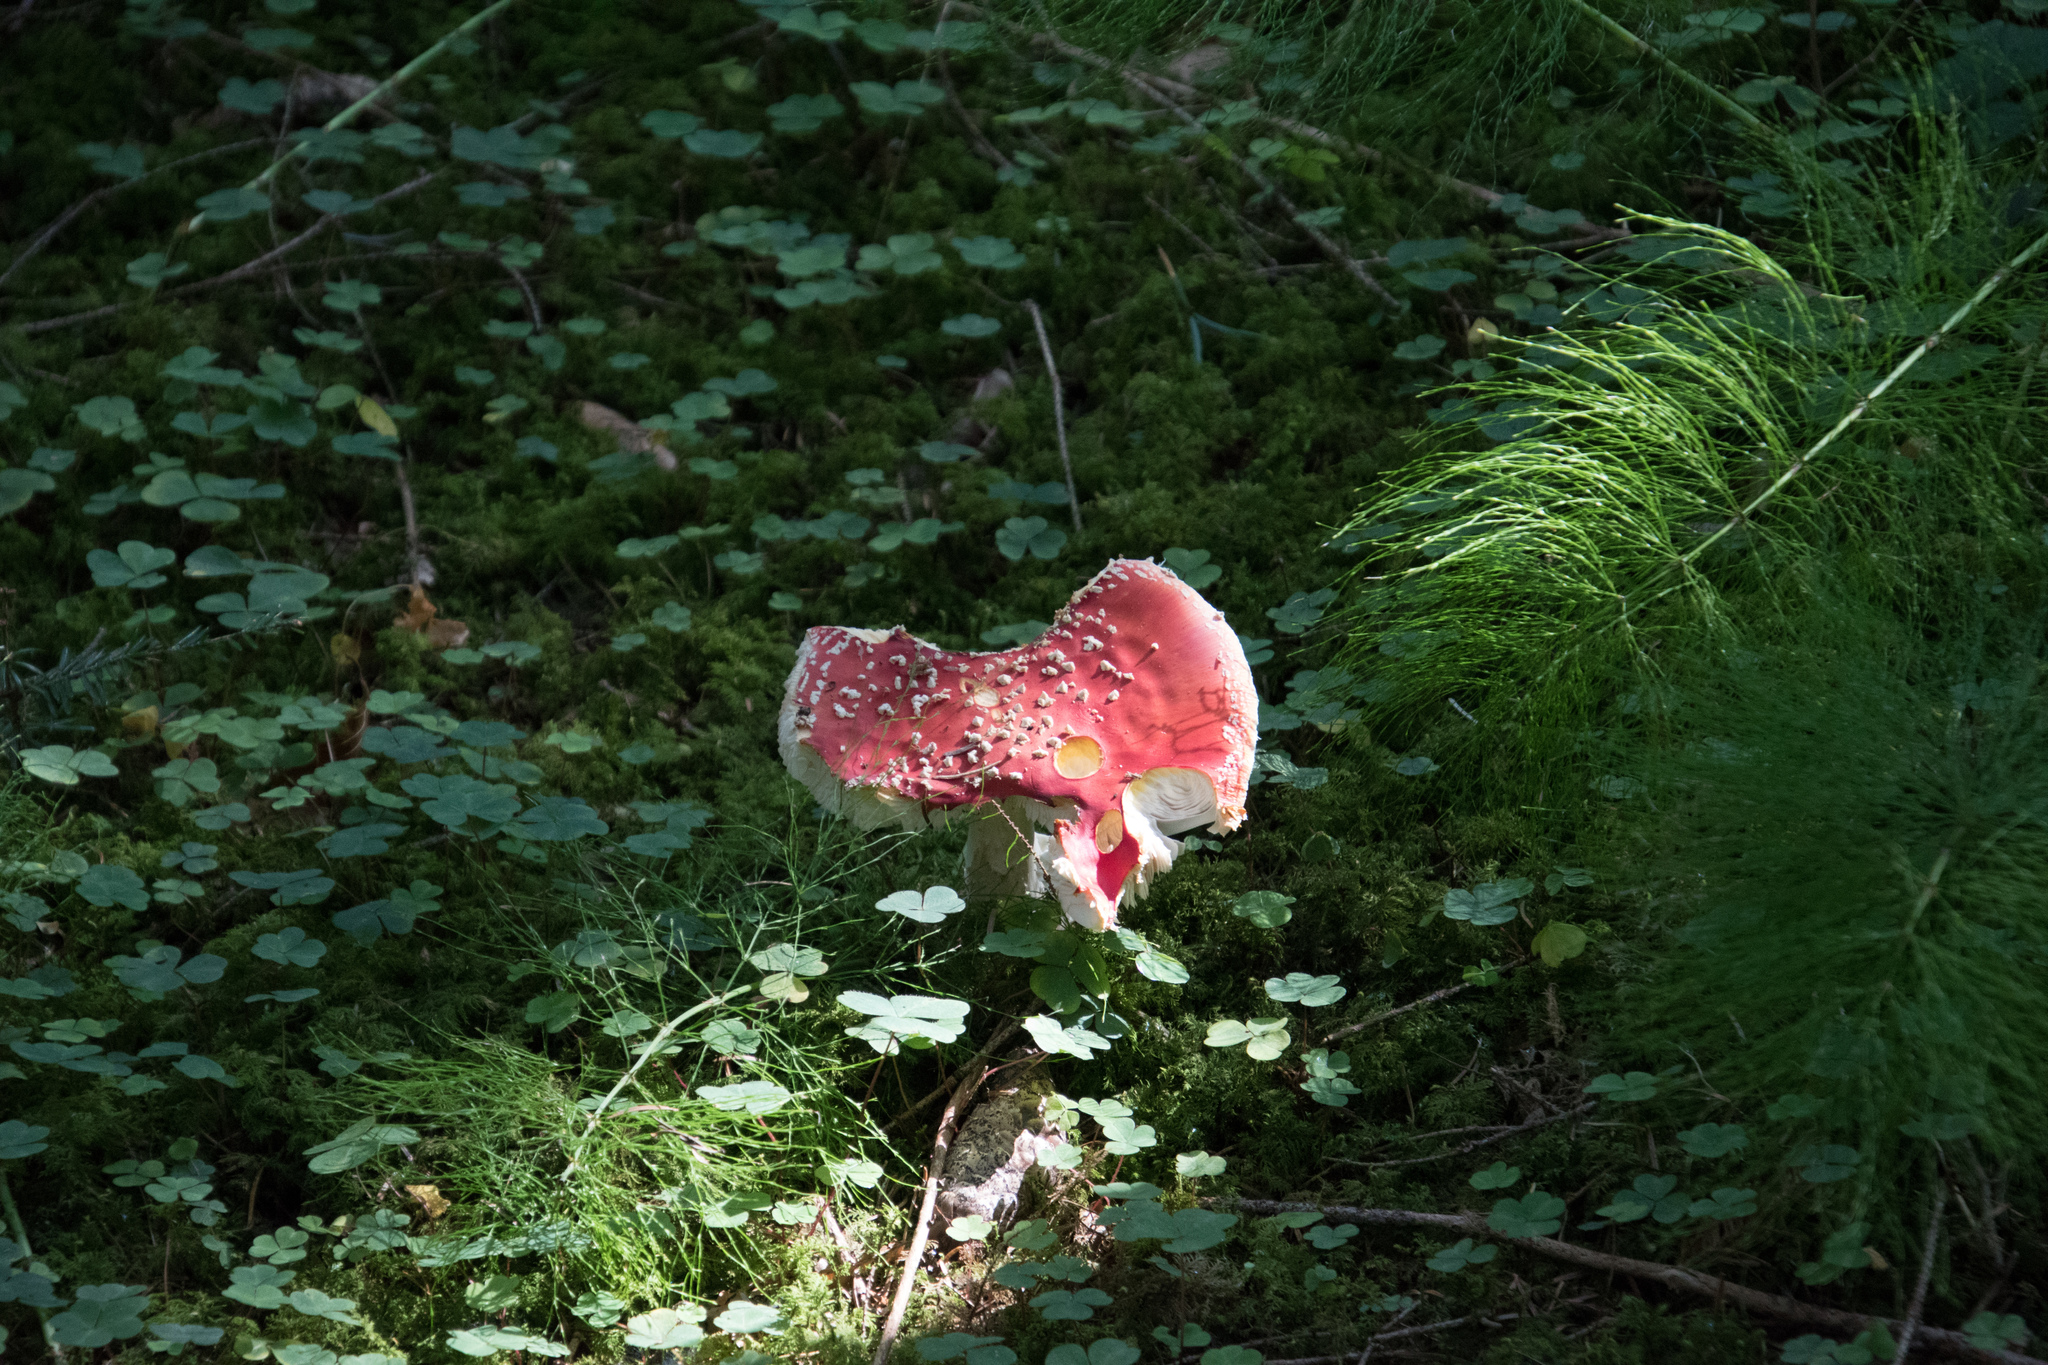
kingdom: Fungi
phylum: Basidiomycota
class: Agaricomycetes
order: Agaricales
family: Amanitaceae
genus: Amanita
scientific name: Amanita muscaria
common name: Fly agaric
